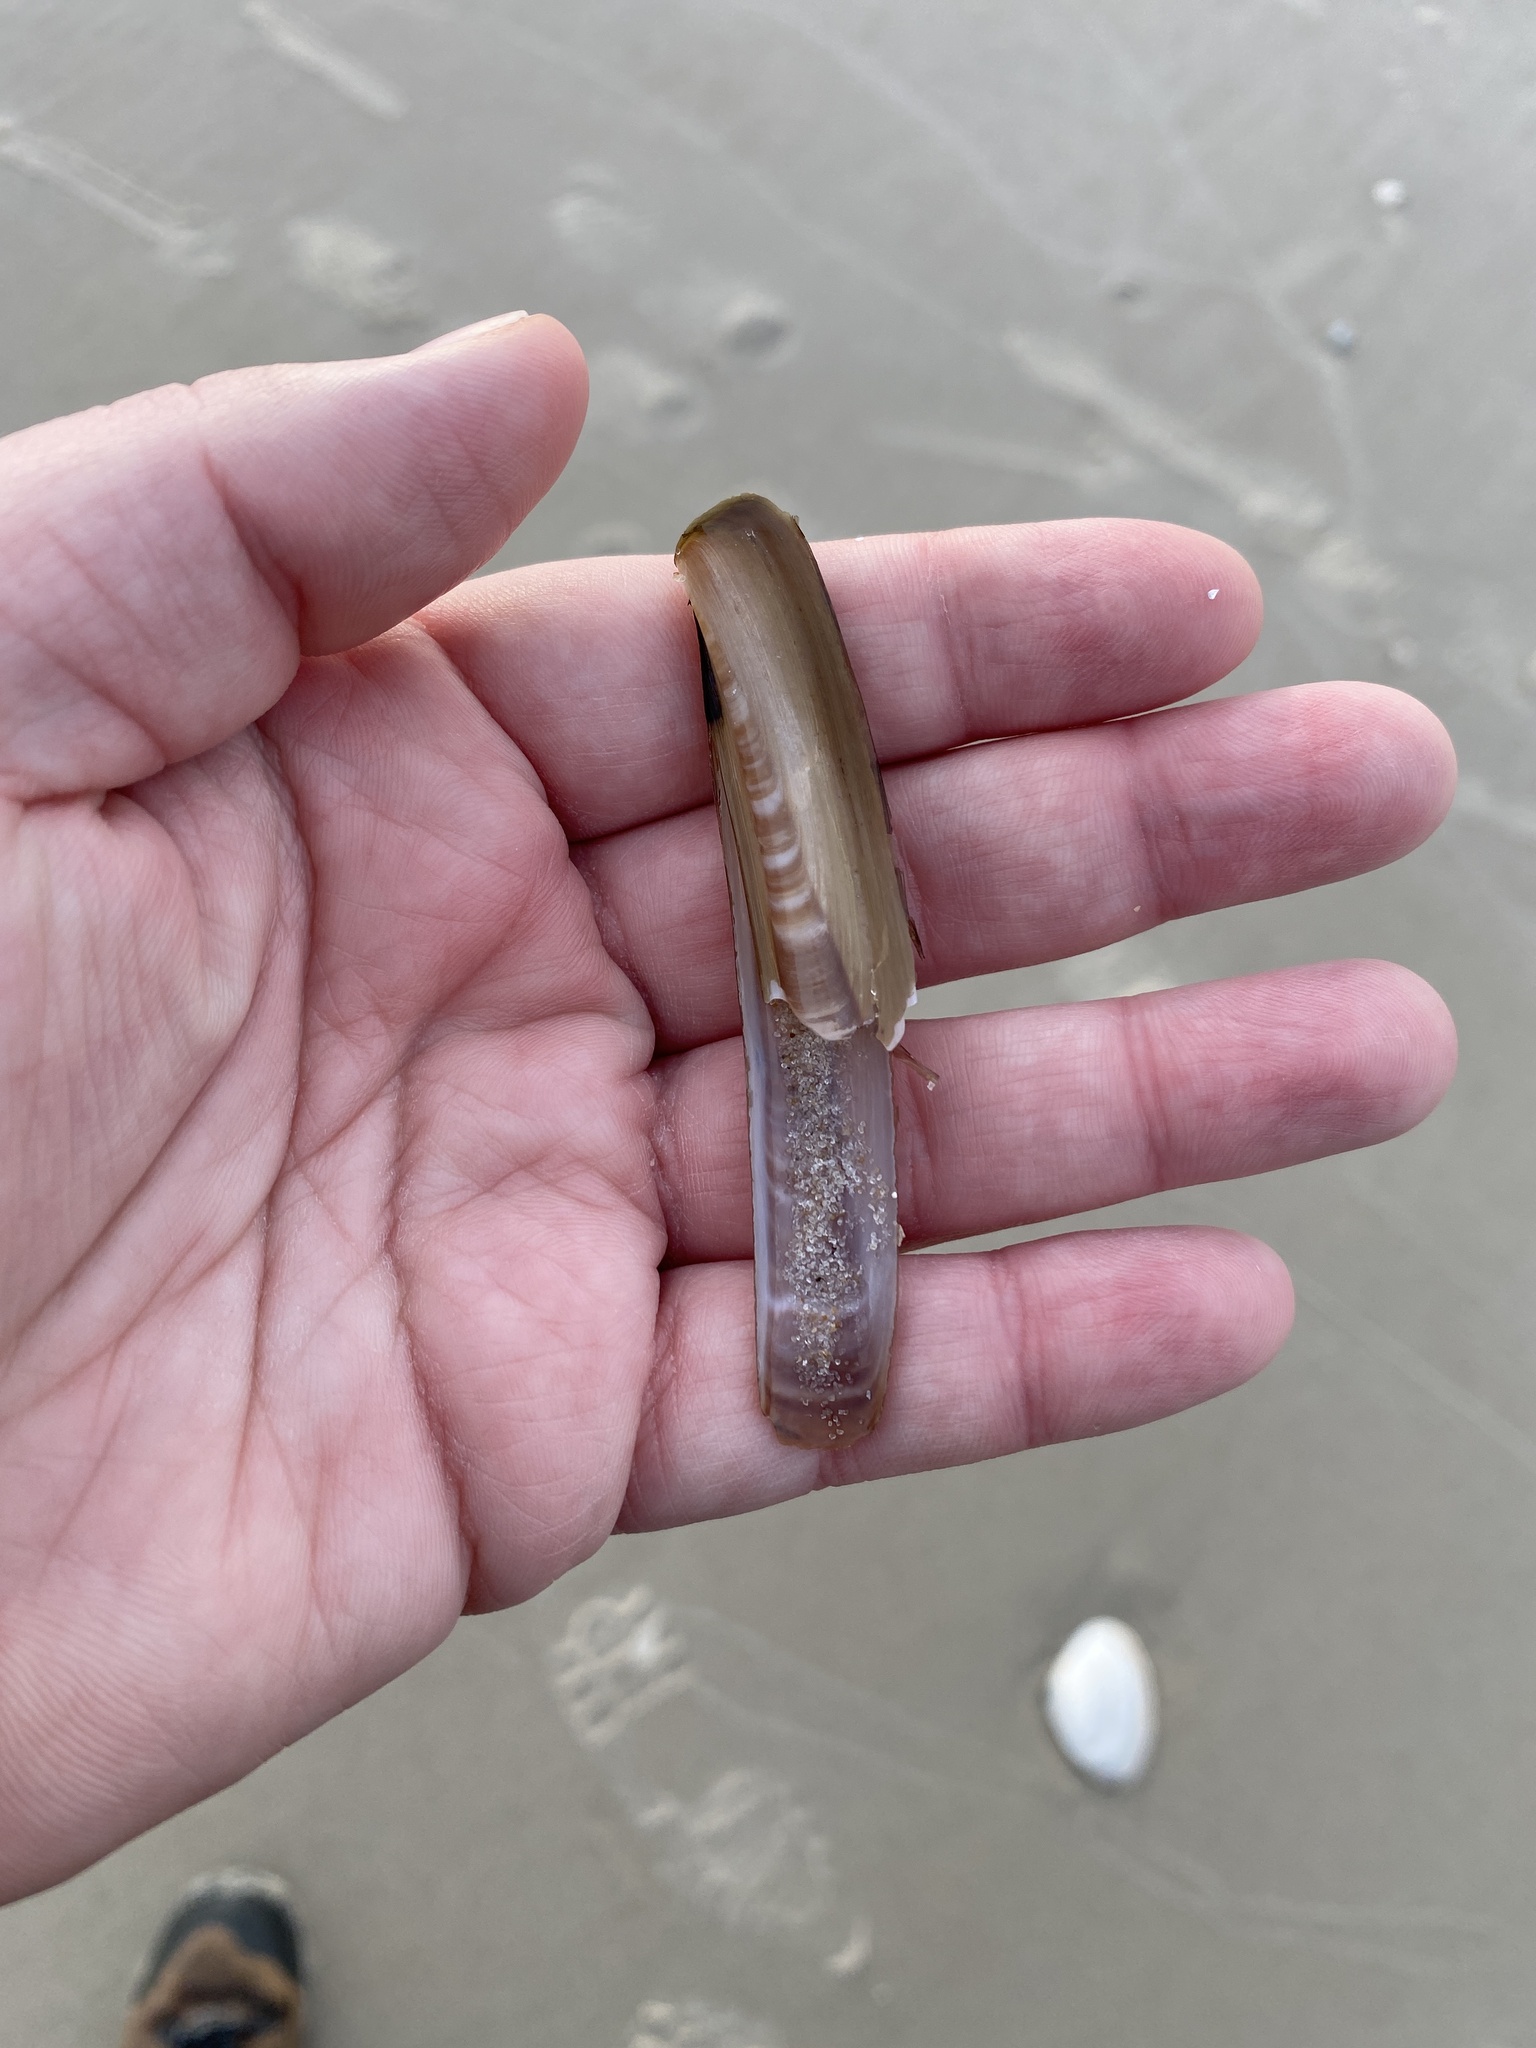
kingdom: Animalia
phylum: Mollusca
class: Bivalvia
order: Adapedonta
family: Pharidae
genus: Ensis
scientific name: Ensis leei
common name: American jack knife clam
